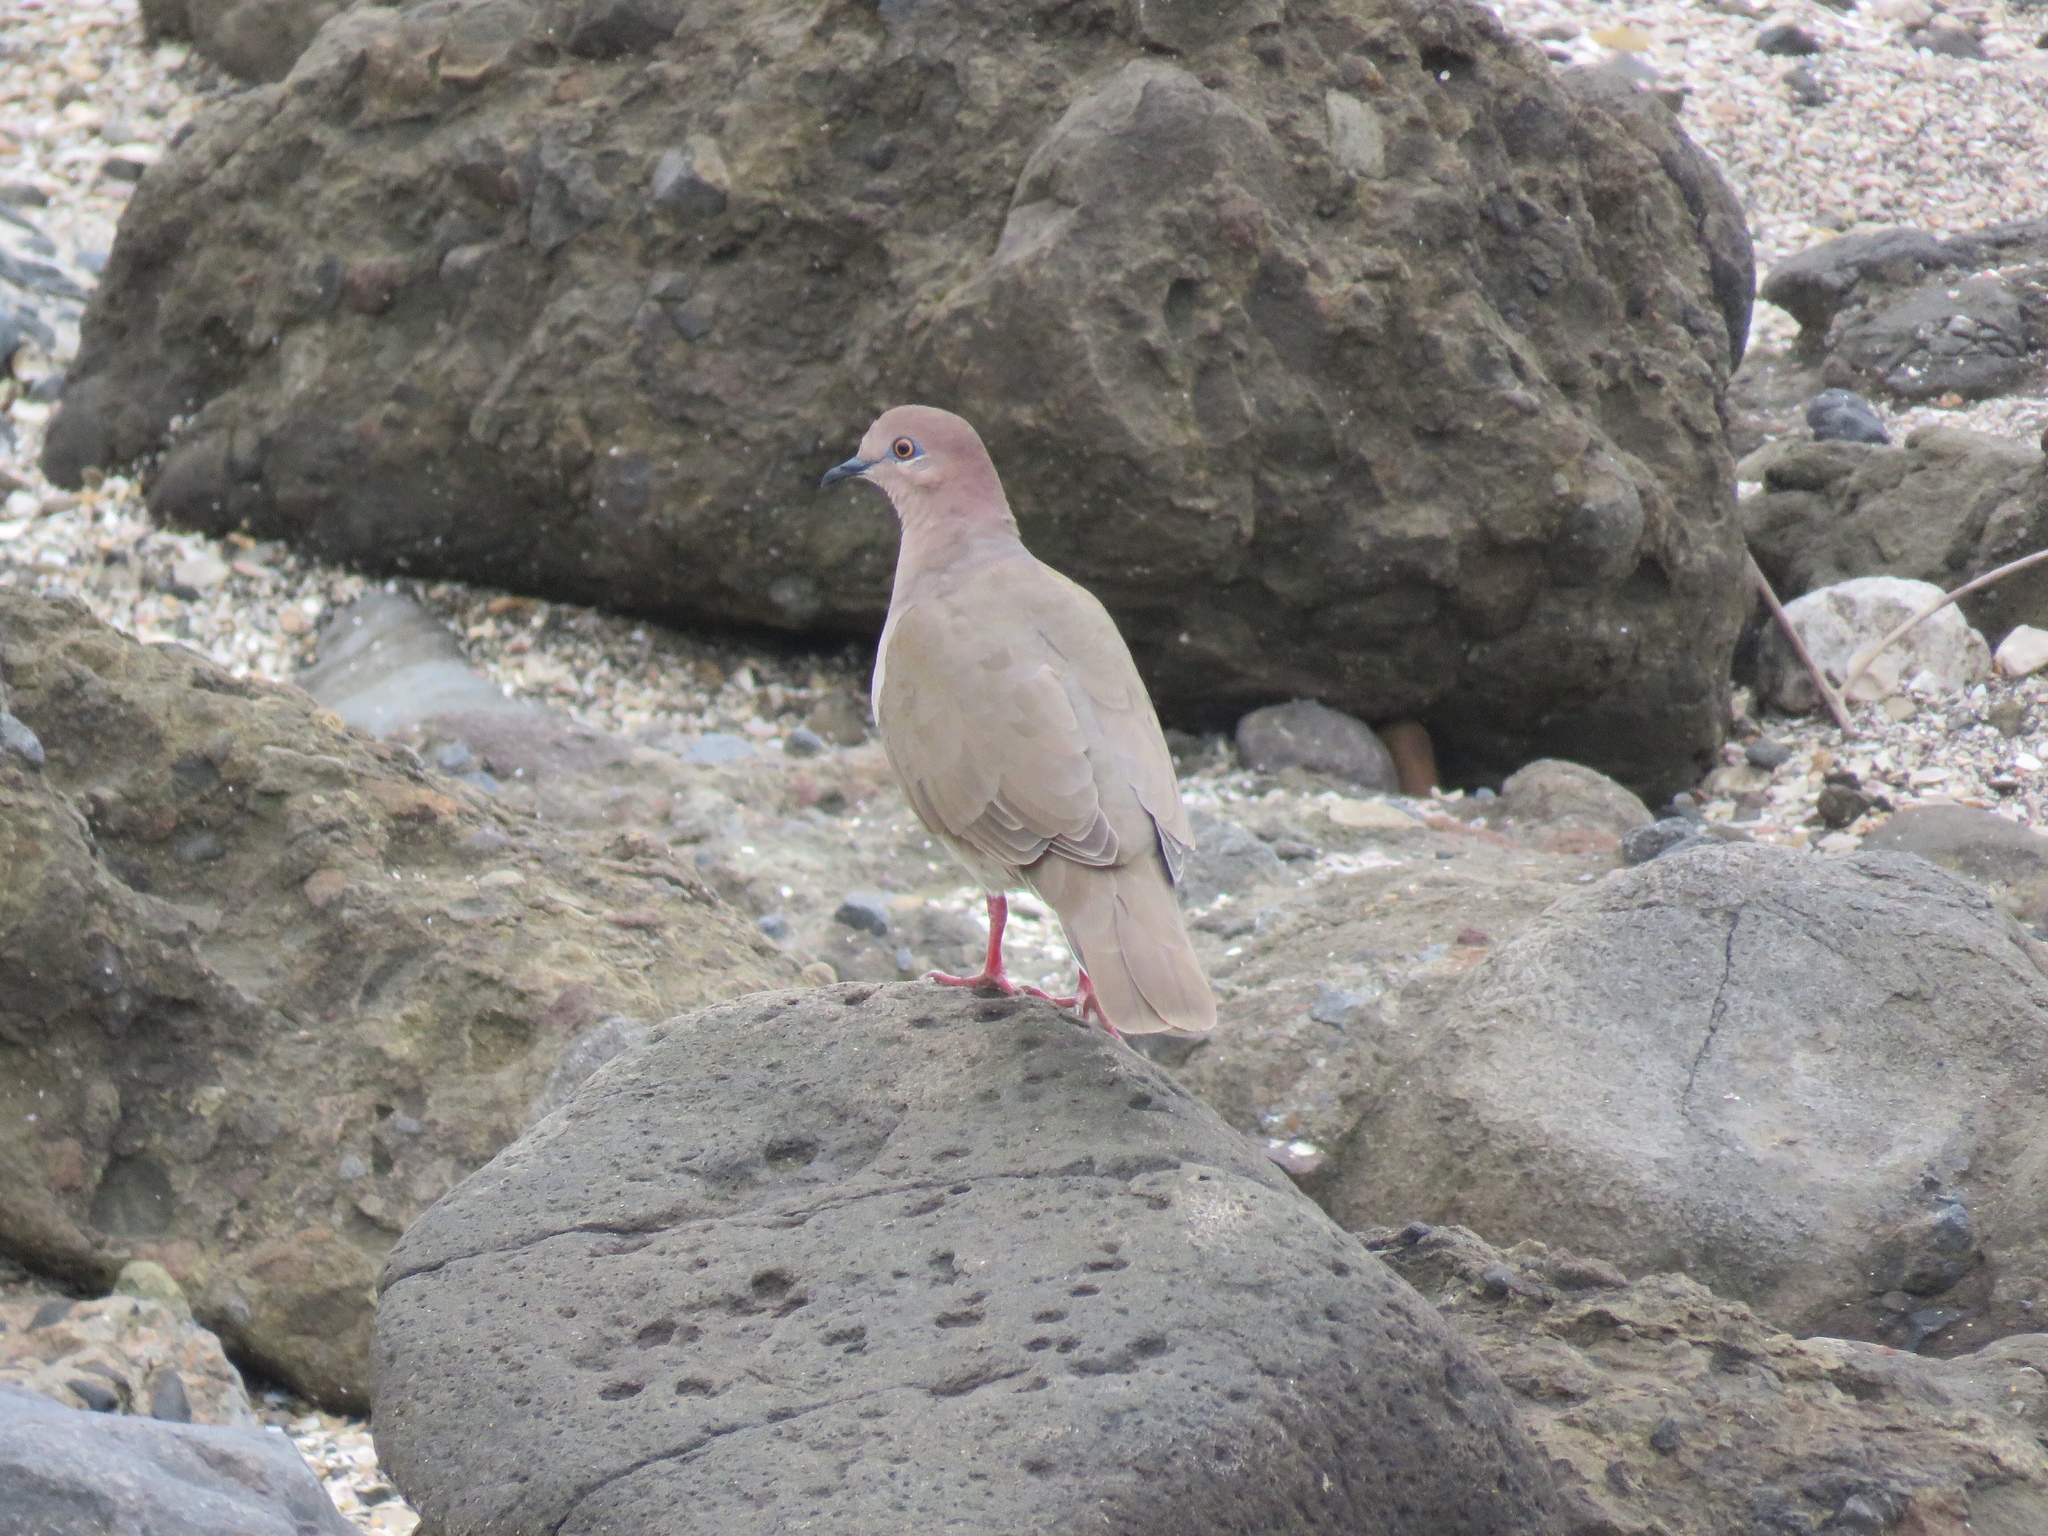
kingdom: Animalia
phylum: Chordata
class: Aves
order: Columbiformes
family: Columbidae
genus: Leptotila
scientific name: Leptotila verreauxi
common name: White-tipped dove
